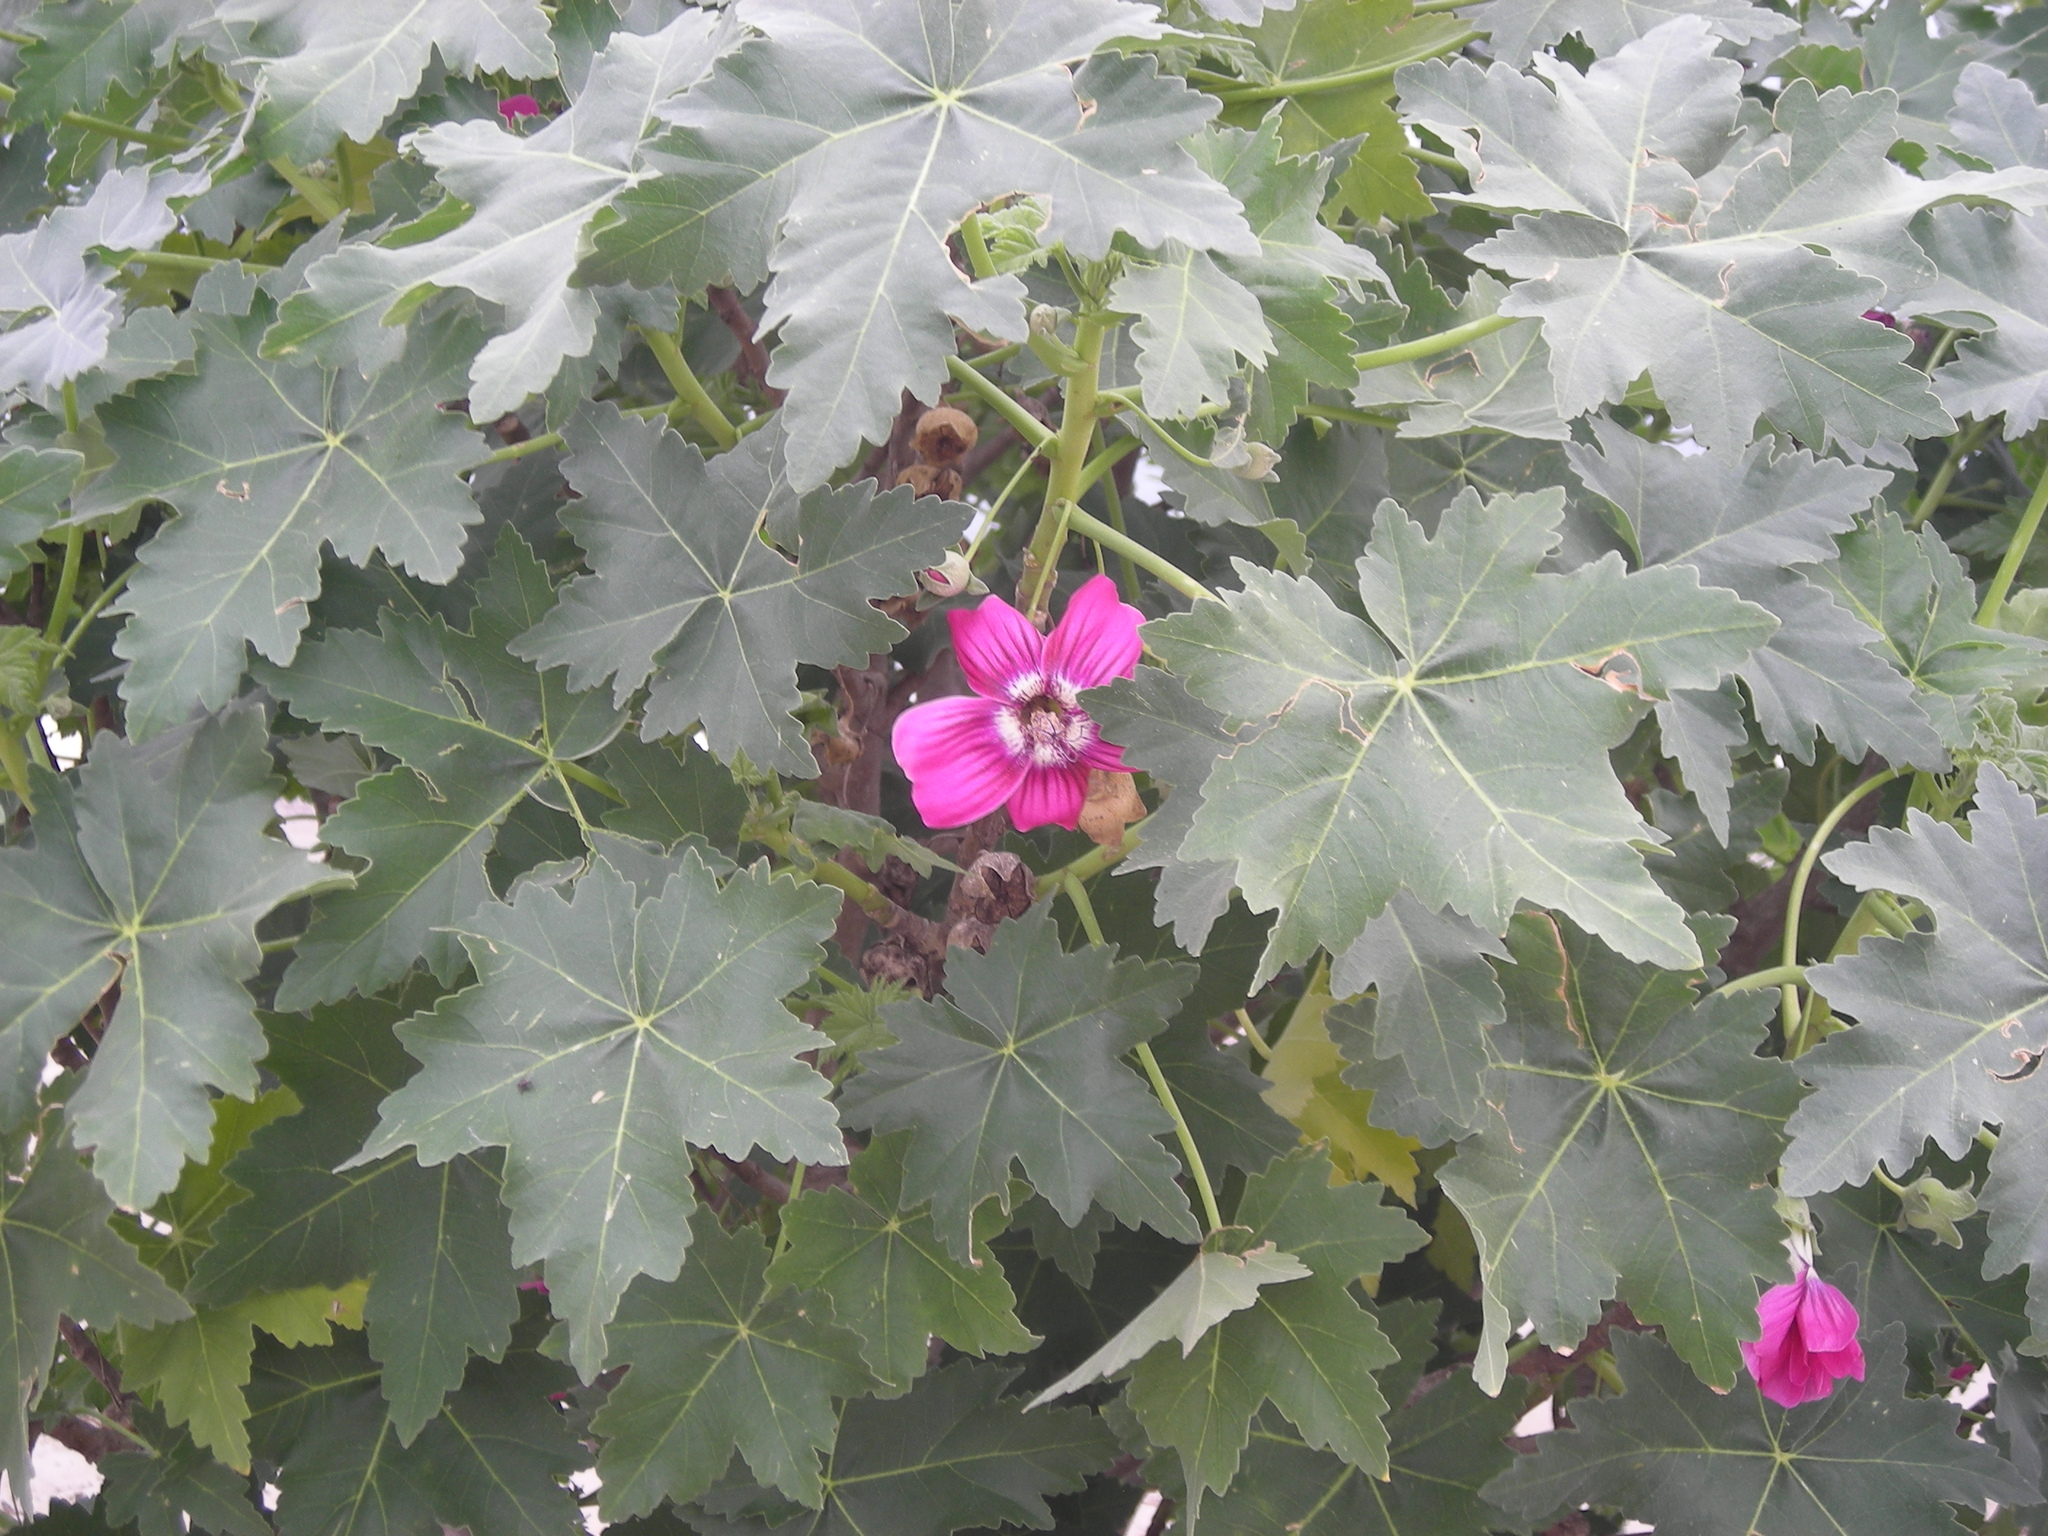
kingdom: Plantae
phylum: Tracheophyta
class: Magnoliopsida
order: Malvales
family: Malvaceae
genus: Malva
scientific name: Malva assurgentiflora
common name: Island mallow
